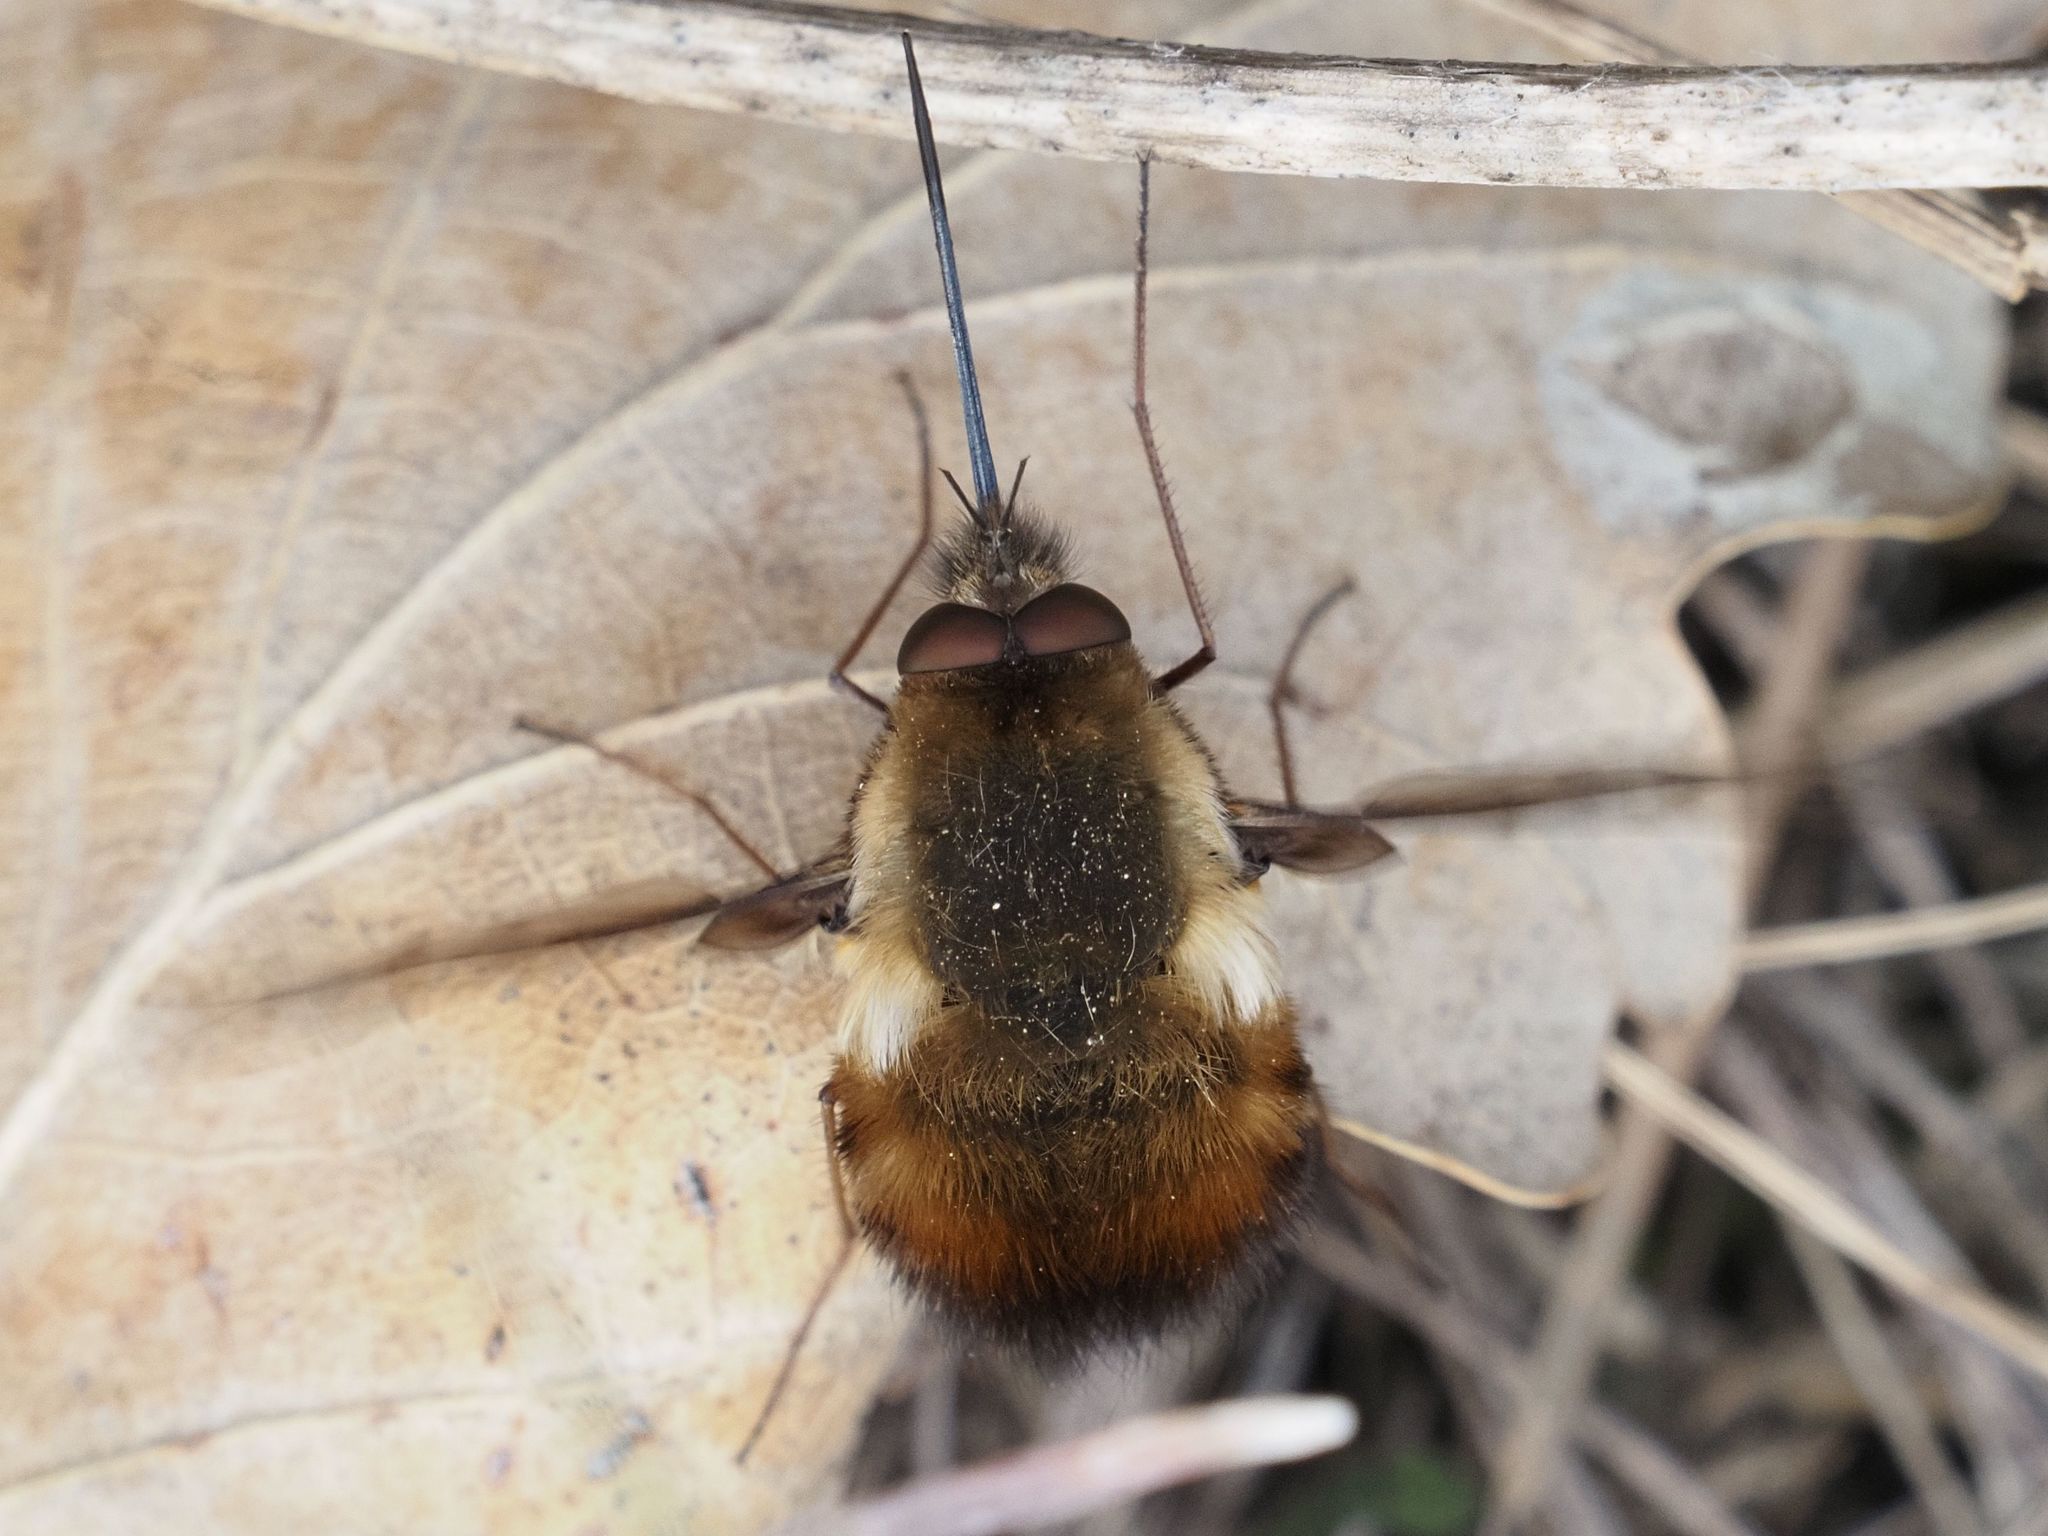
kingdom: Animalia
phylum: Arthropoda
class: Insecta
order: Diptera
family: Bombyliidae
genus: Bombylius
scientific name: Bombylius discolor
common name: Dotted bee-fly
